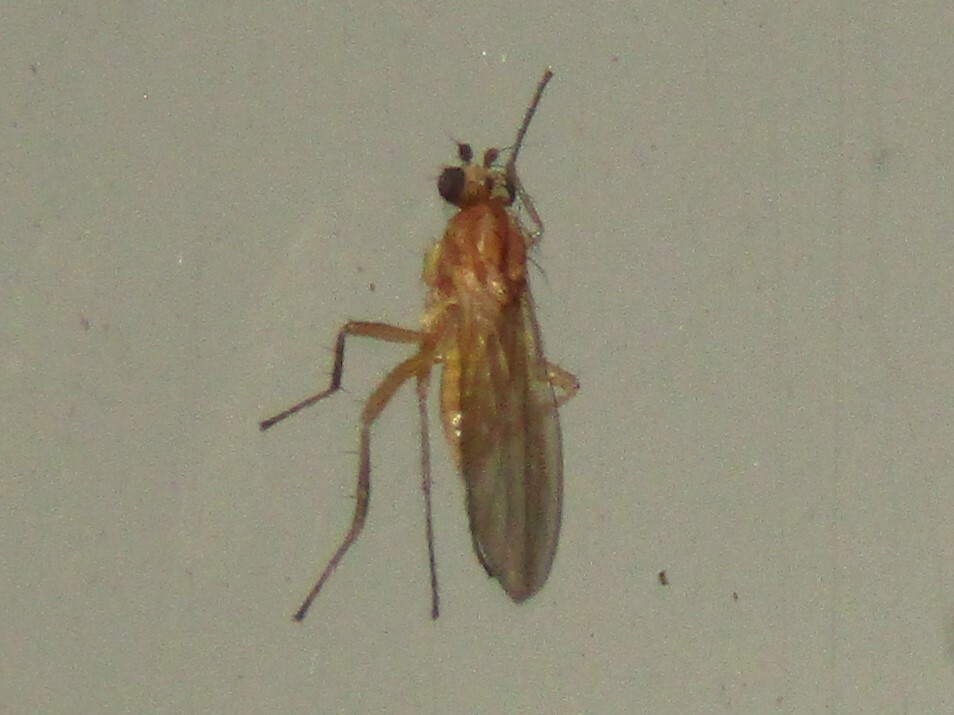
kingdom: Animalia
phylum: Arthropoda
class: Insecta
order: Diptera
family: Lonchopteridae
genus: Lonchoptera
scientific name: Lonchoptera bifurcata
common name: Spear-winged fly
